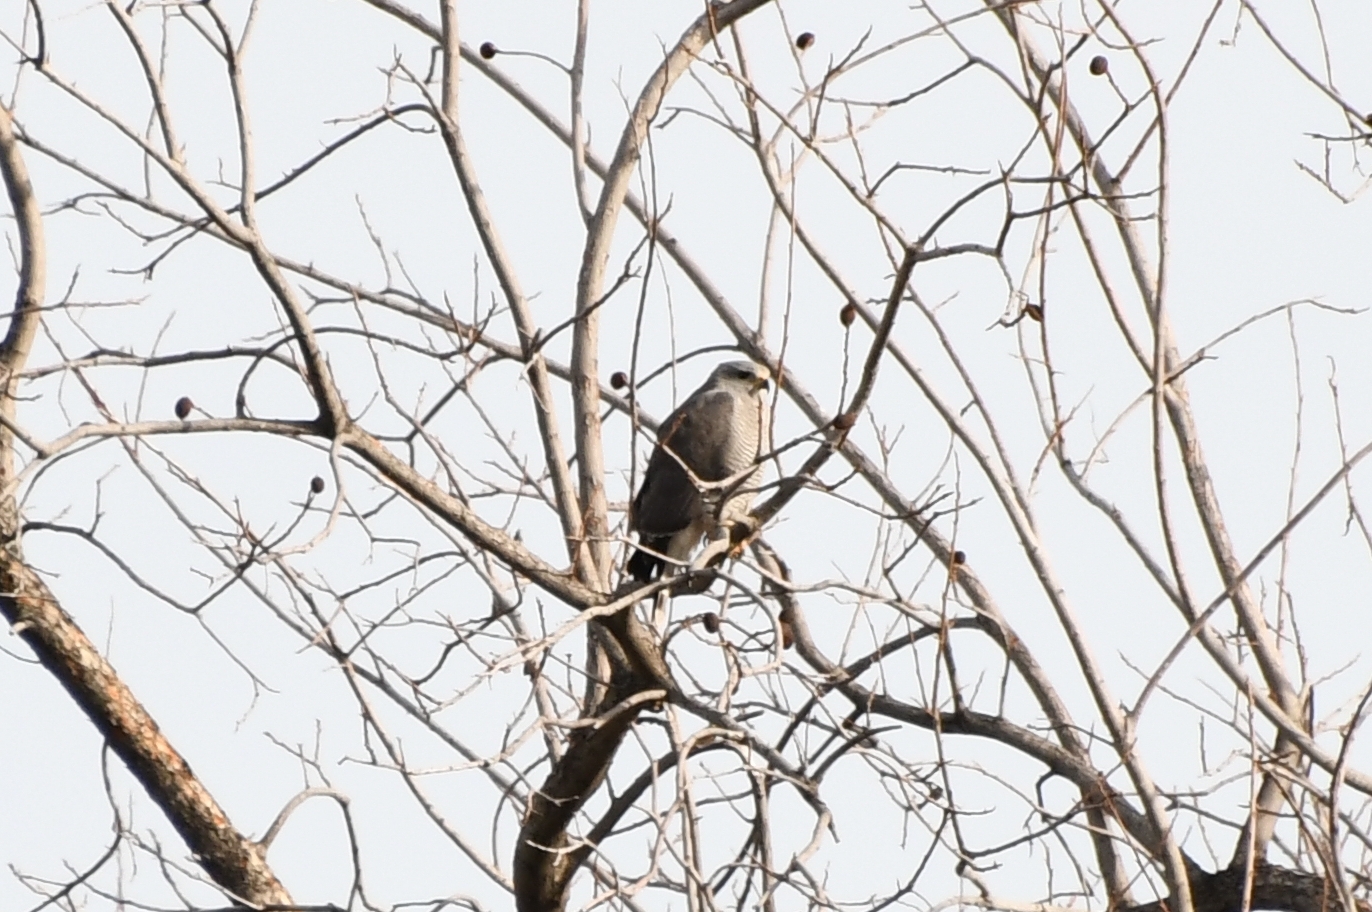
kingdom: Animalia
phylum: Chordata
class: Aves
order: Accipitriformes
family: Accipitridae
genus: Buteo
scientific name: Buteo nitidus
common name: Grey-lined hawk
